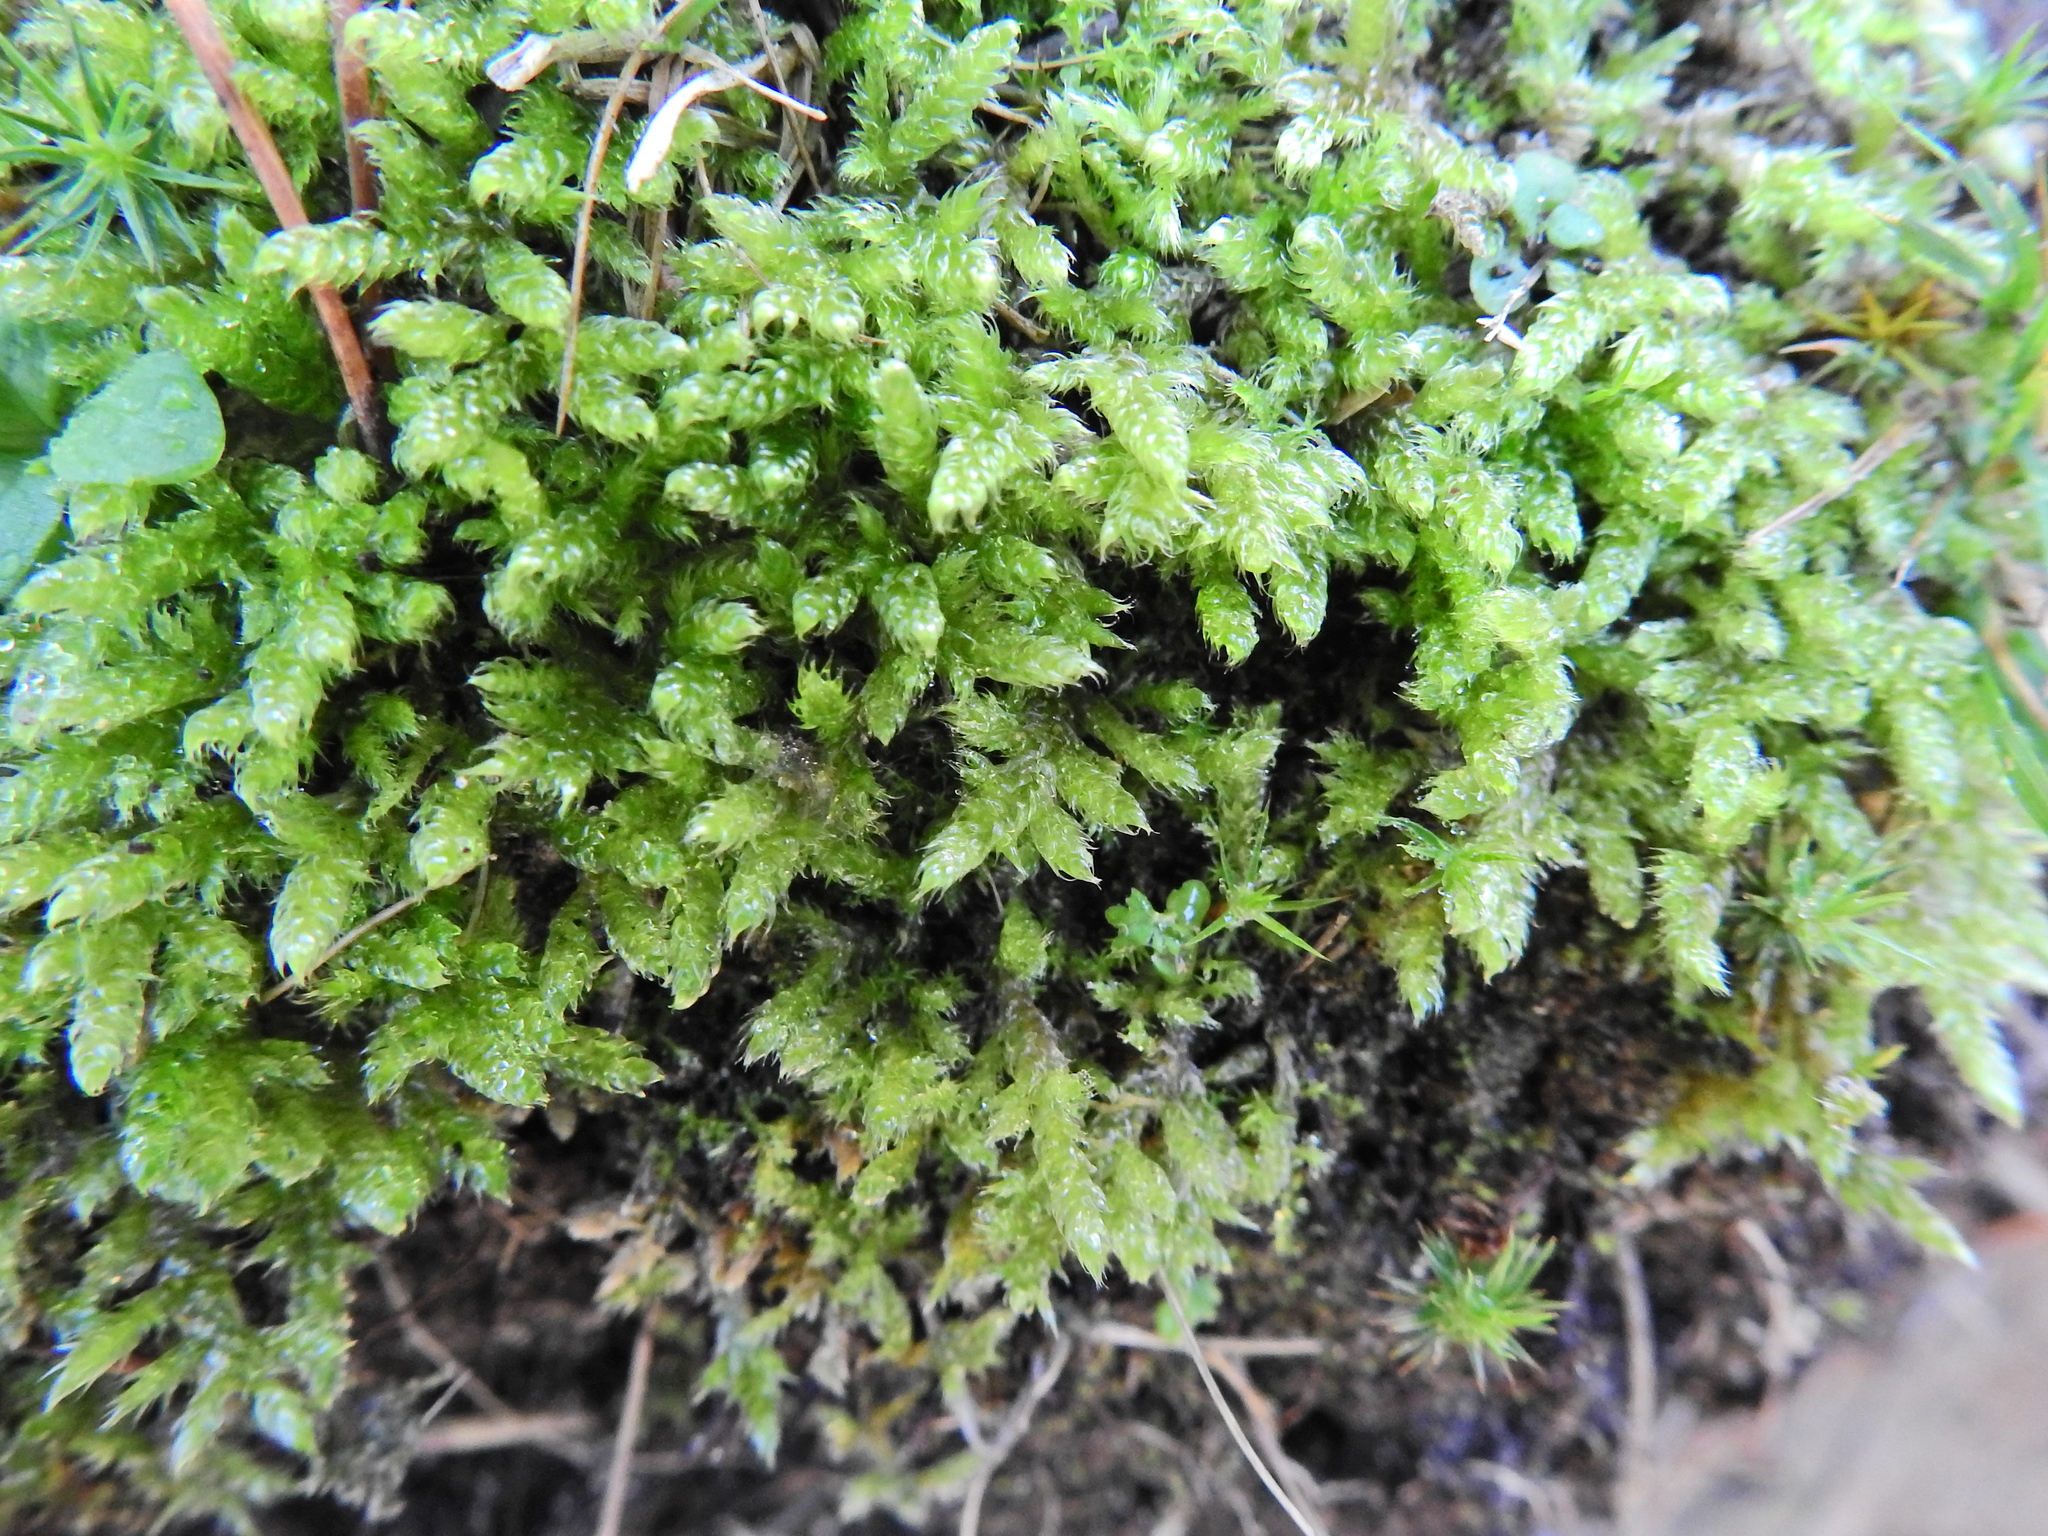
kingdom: Plantae
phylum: Bryophyta
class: Bryopsida
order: Hypnales
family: Hypnaceae
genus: Hypnum
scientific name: Hypnum cupressiforme
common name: Cypress-leaved plait-moss
